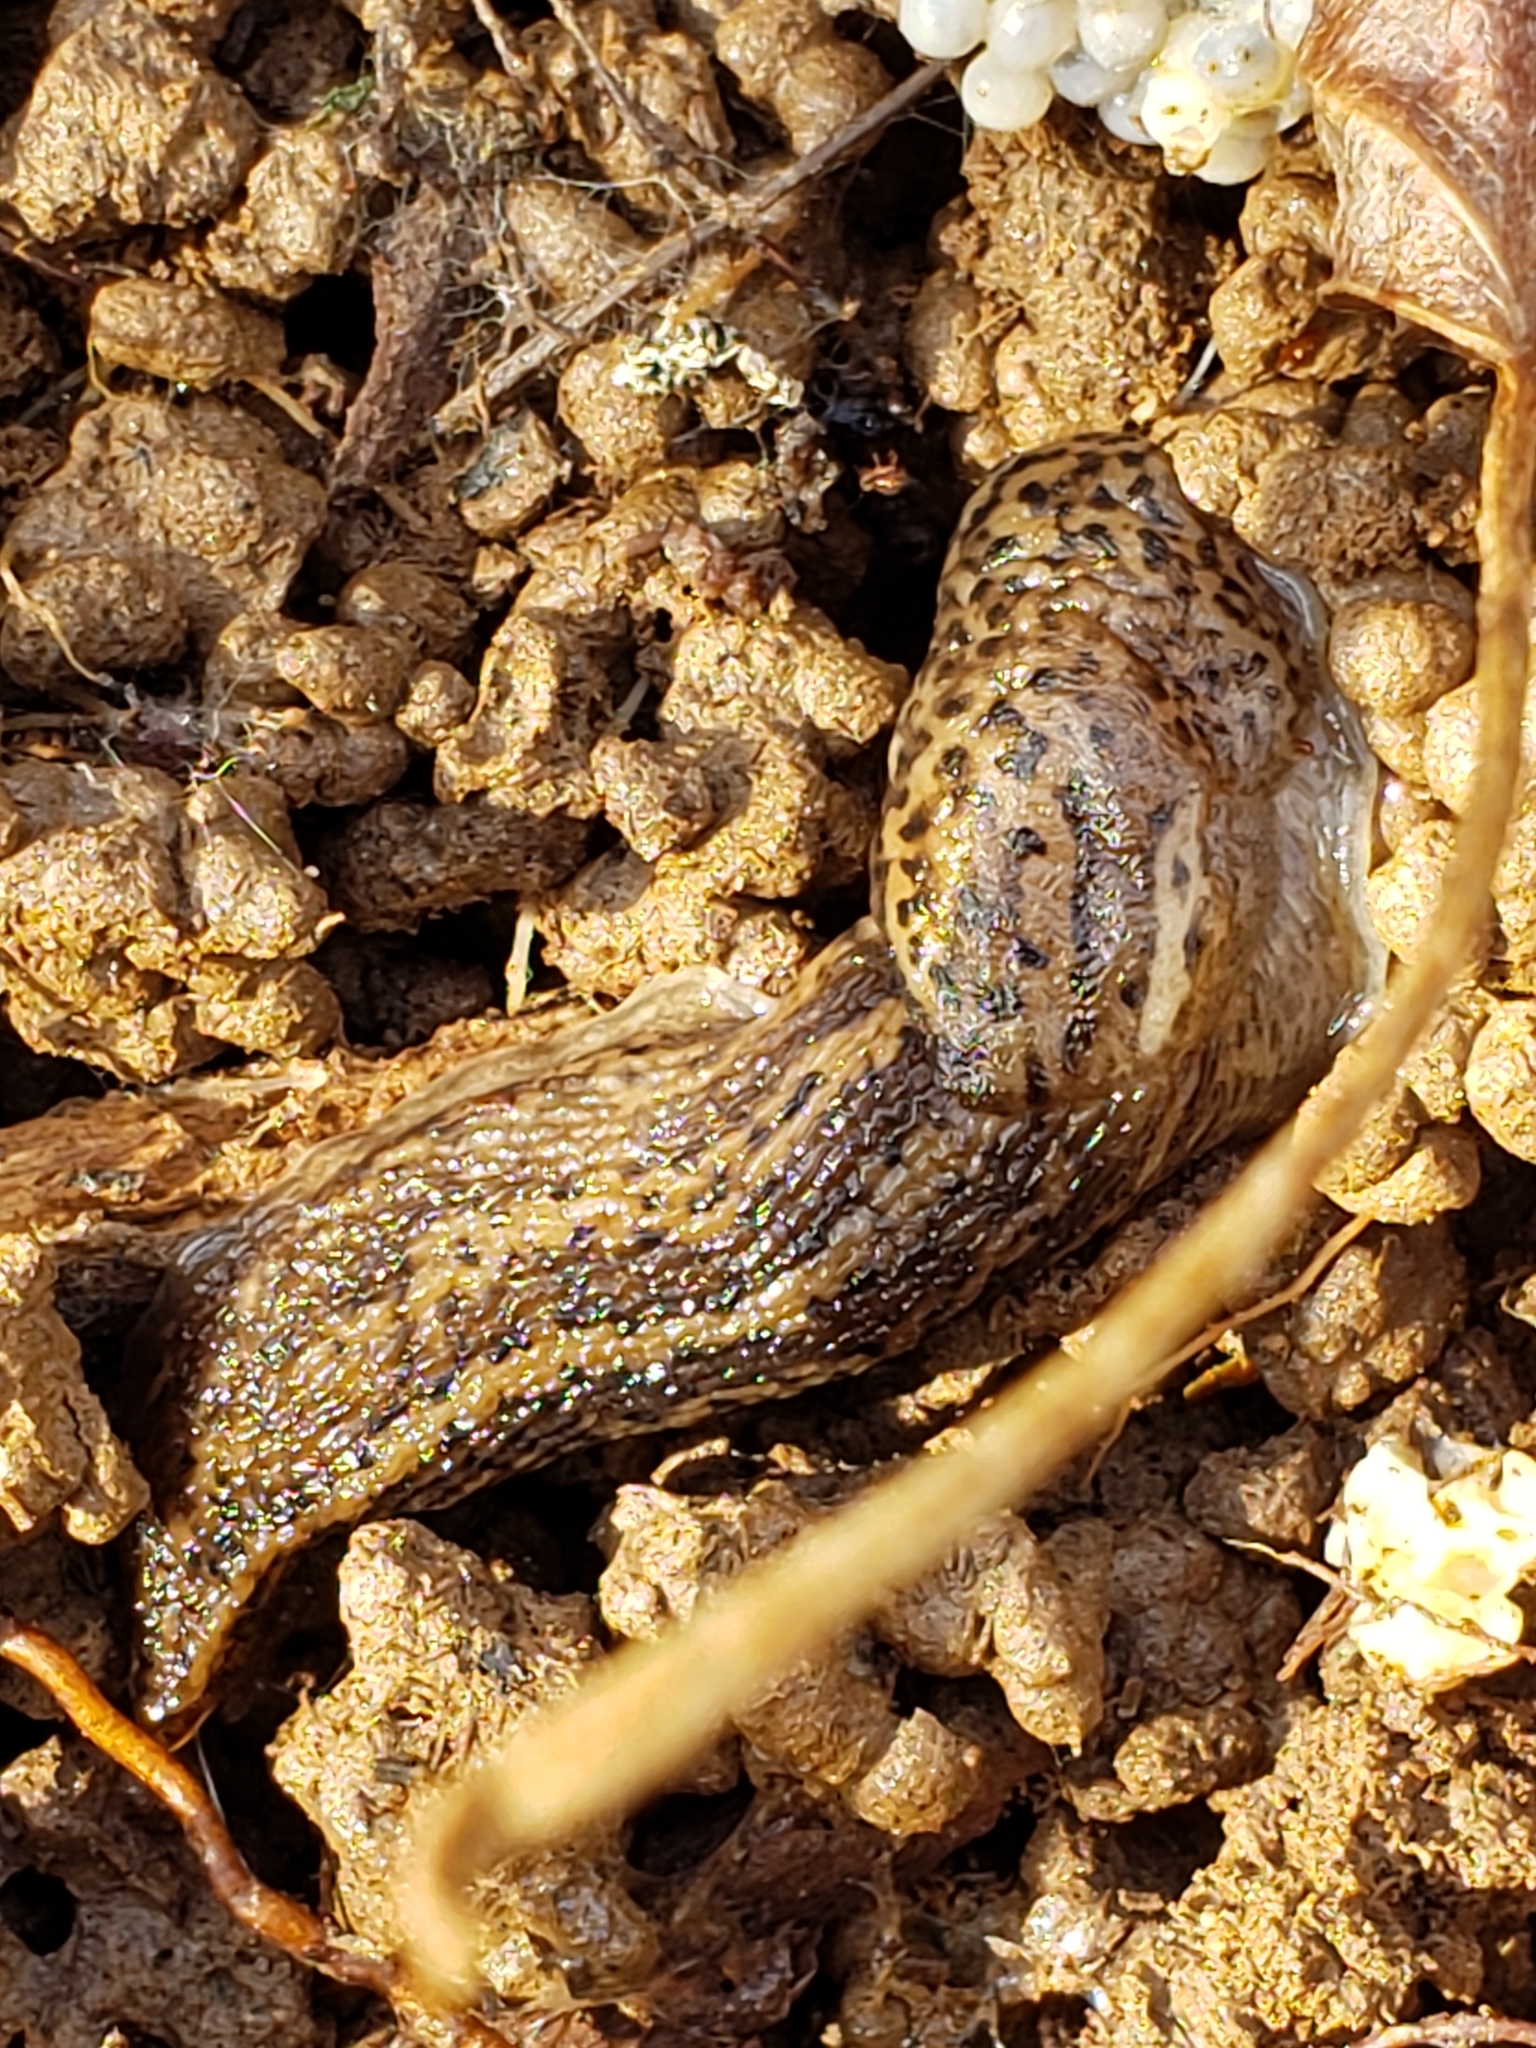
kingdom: Animalia
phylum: Mollusca
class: Gastropoda
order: Stylommatophora
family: Limacidae
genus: Limax
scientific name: Limax maximus
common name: Great grey slug
